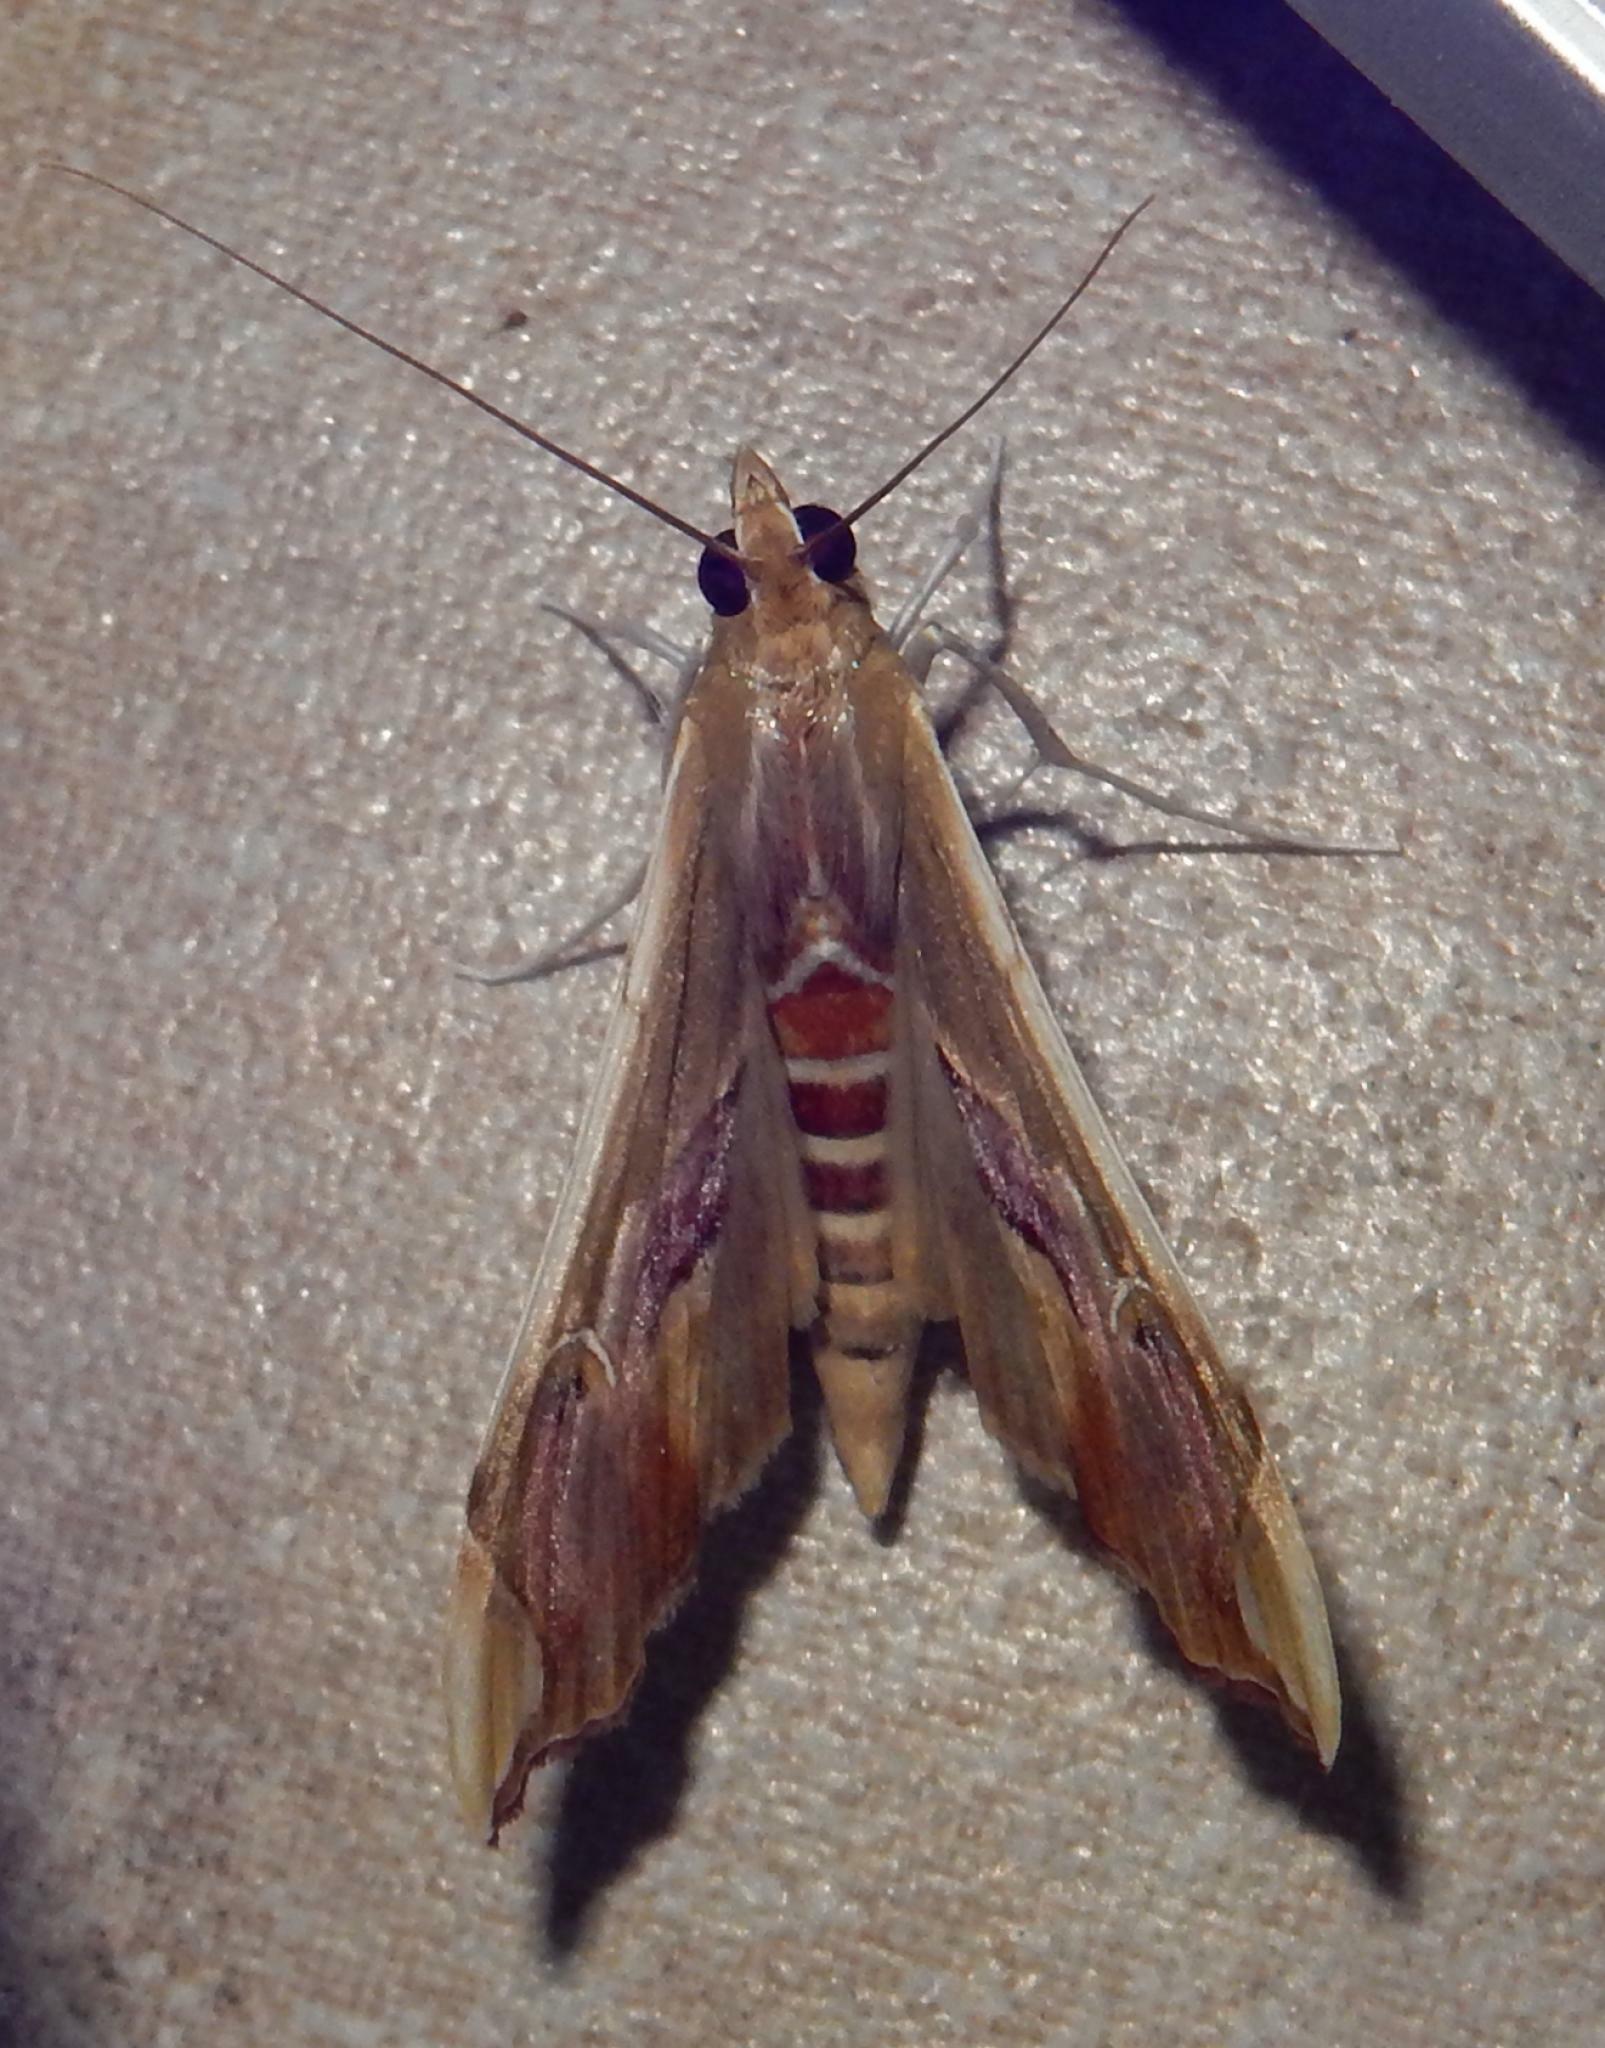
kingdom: Animalia
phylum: Arthropoda
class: Insecta
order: Lepidoptera
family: Crambidae
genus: Agathodes
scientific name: Agathodes musivalis
